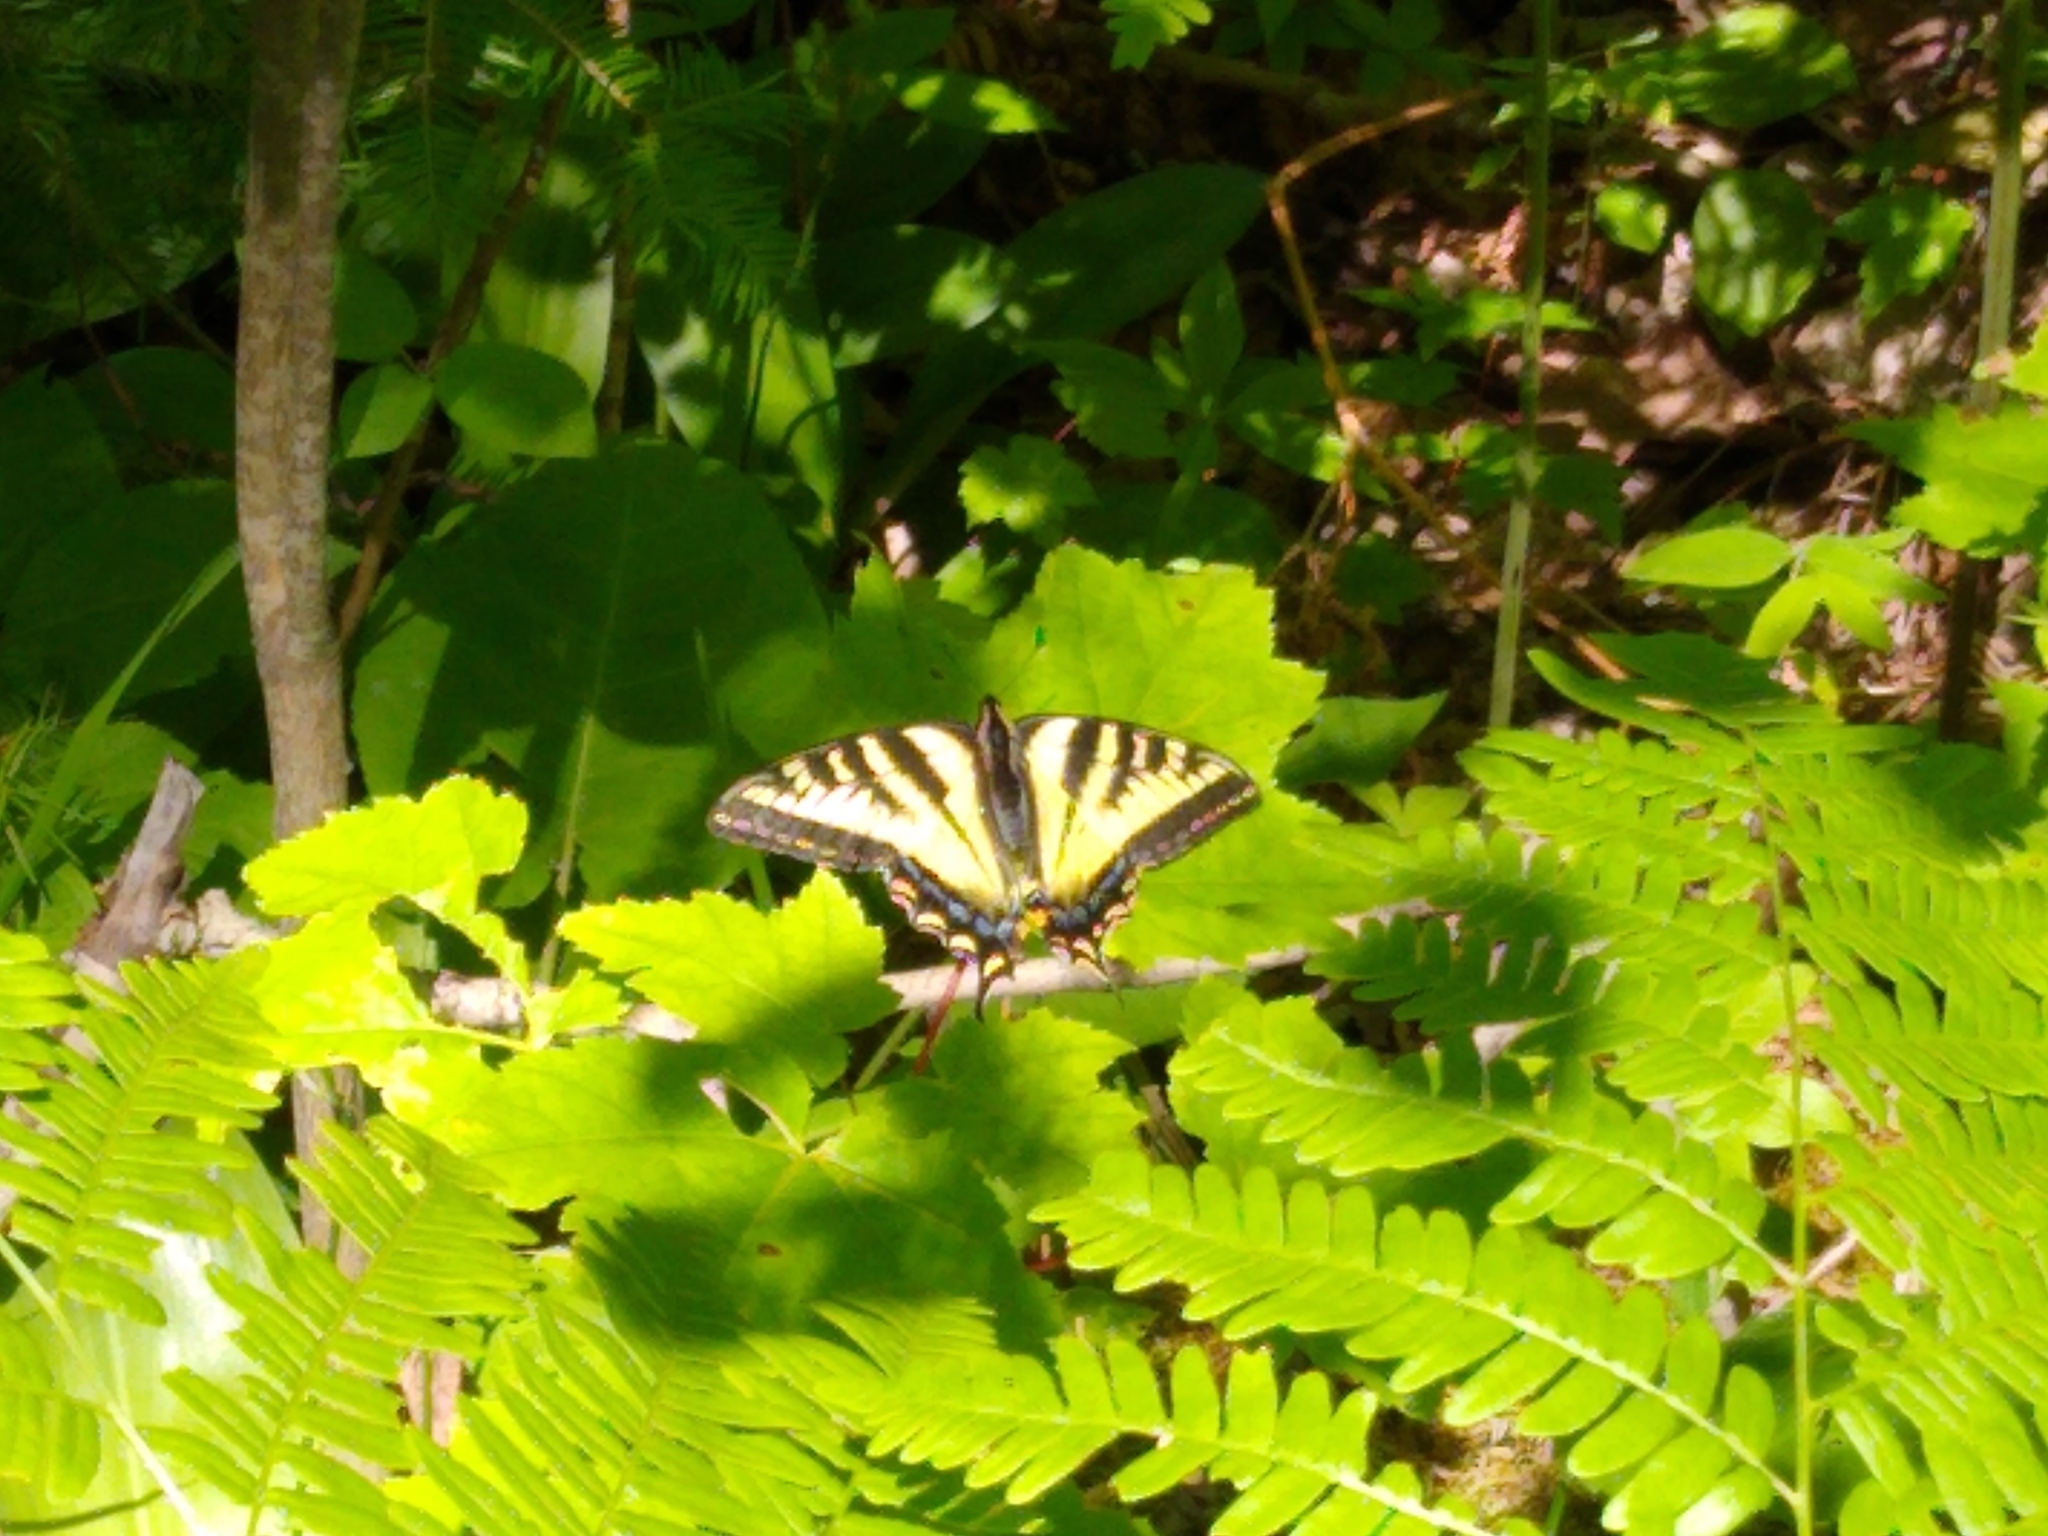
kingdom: Animalia
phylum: Arthropoda
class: Insecta
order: Lepidoptera
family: Papilionidae
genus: Papilio
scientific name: Papilio canadensis
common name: Canadian tiger swallowtail
